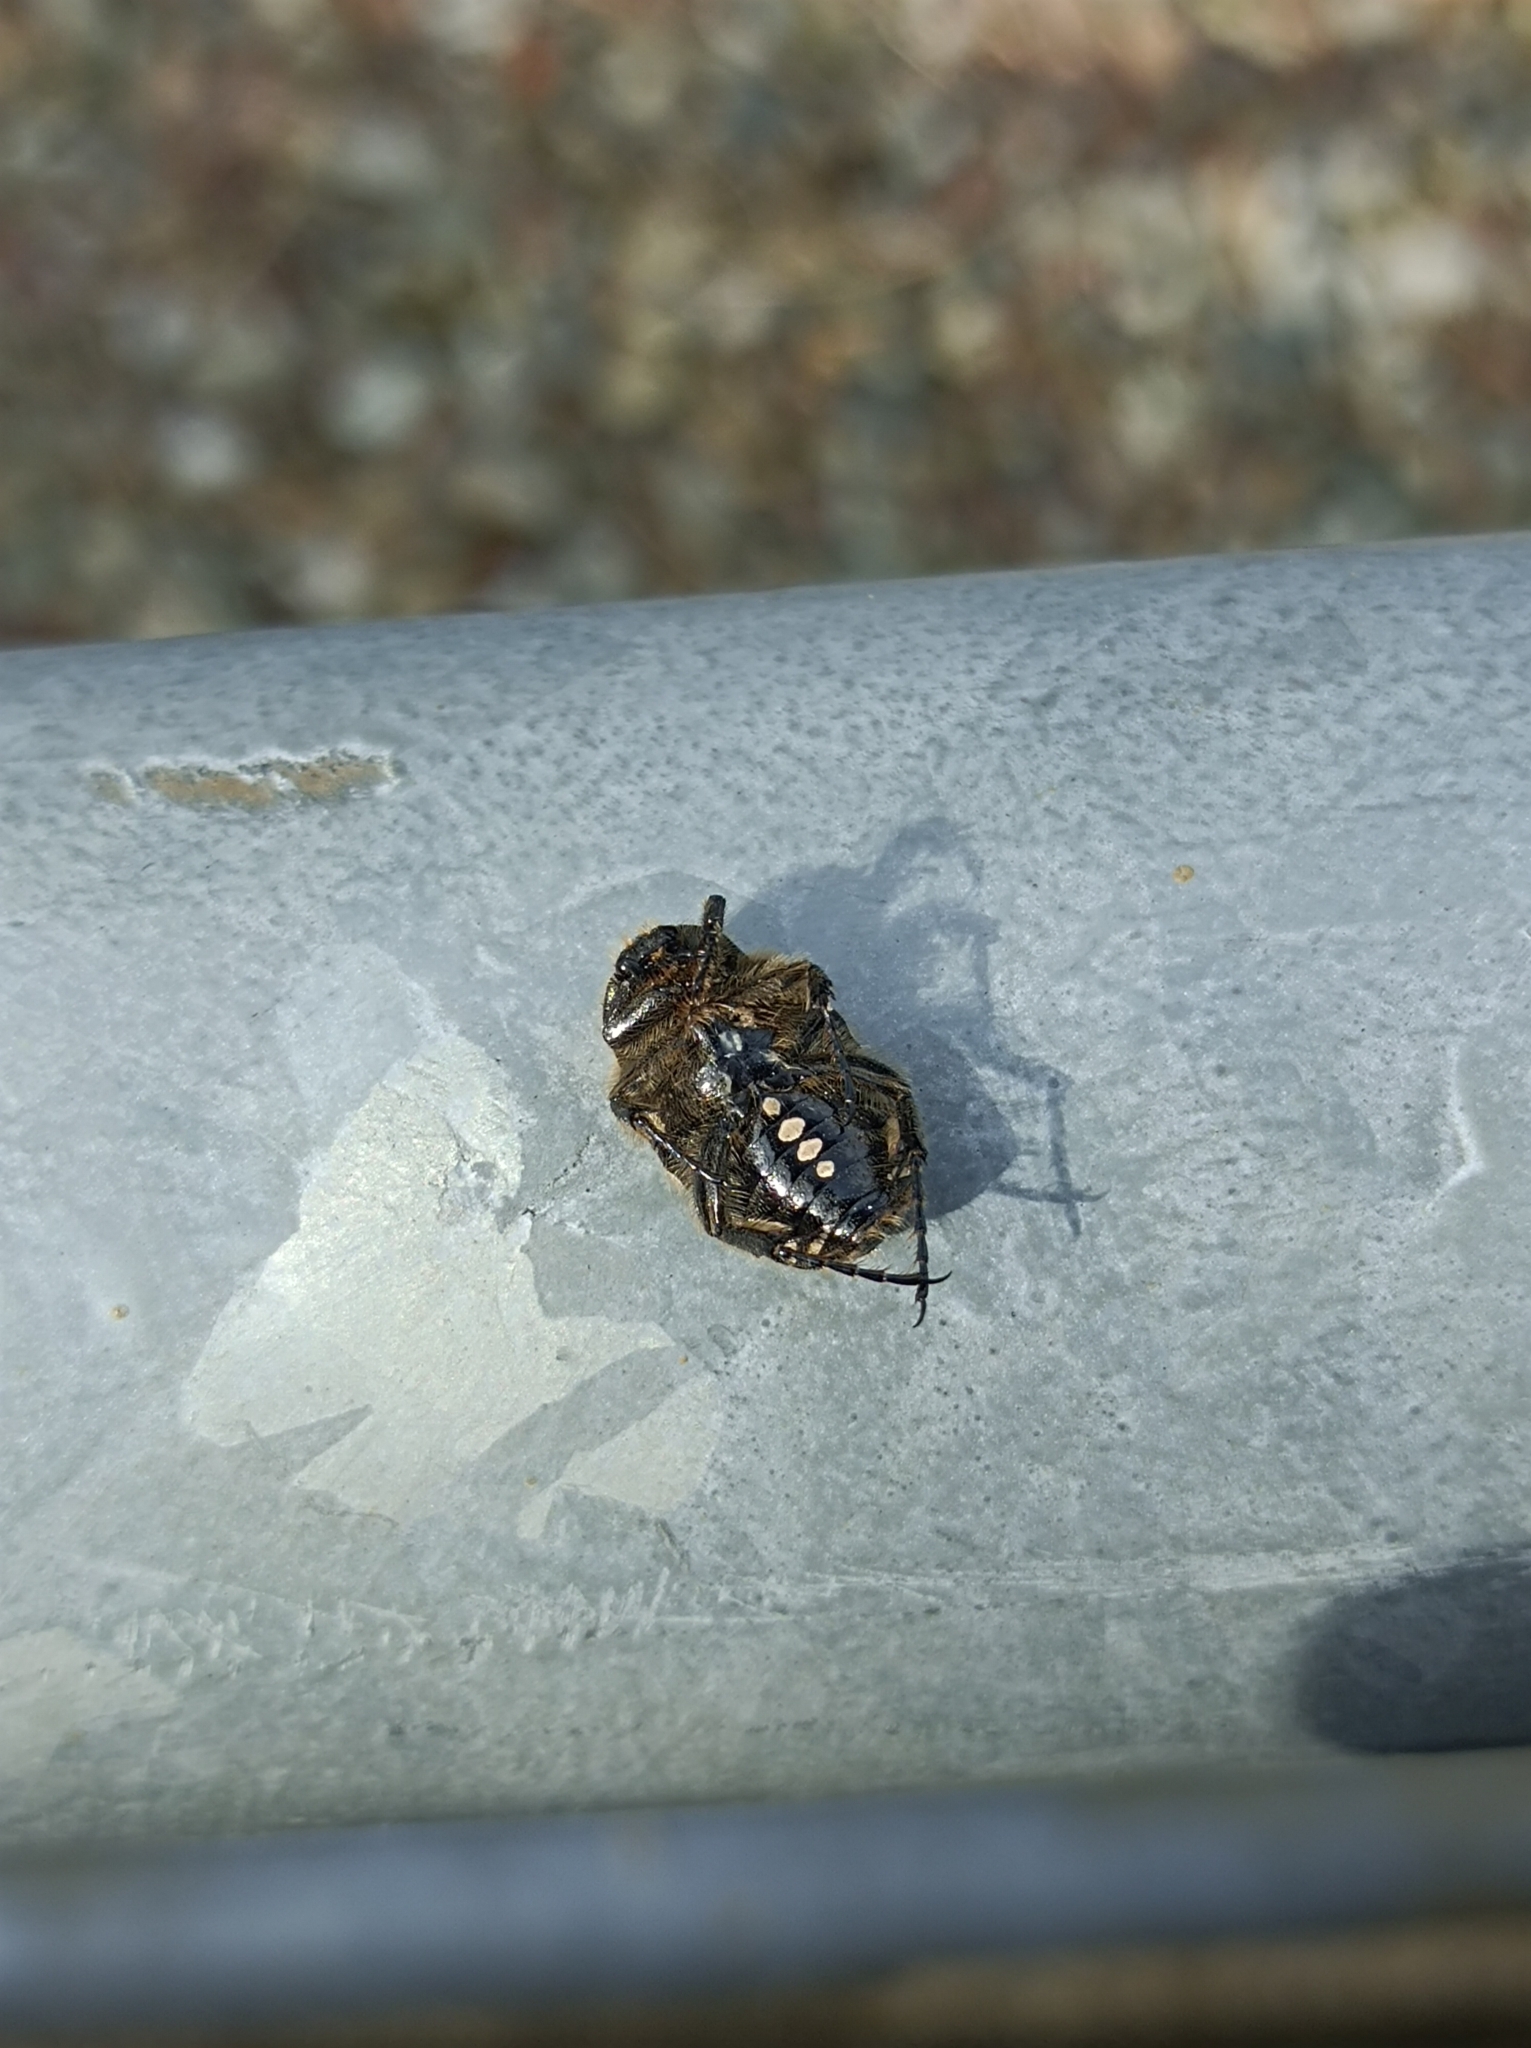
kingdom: Animalia
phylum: Arthropoda
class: Insecta
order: Coleoptera
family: Scarabaeidae
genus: Oxythyrea
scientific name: Oxythyrea funesta
